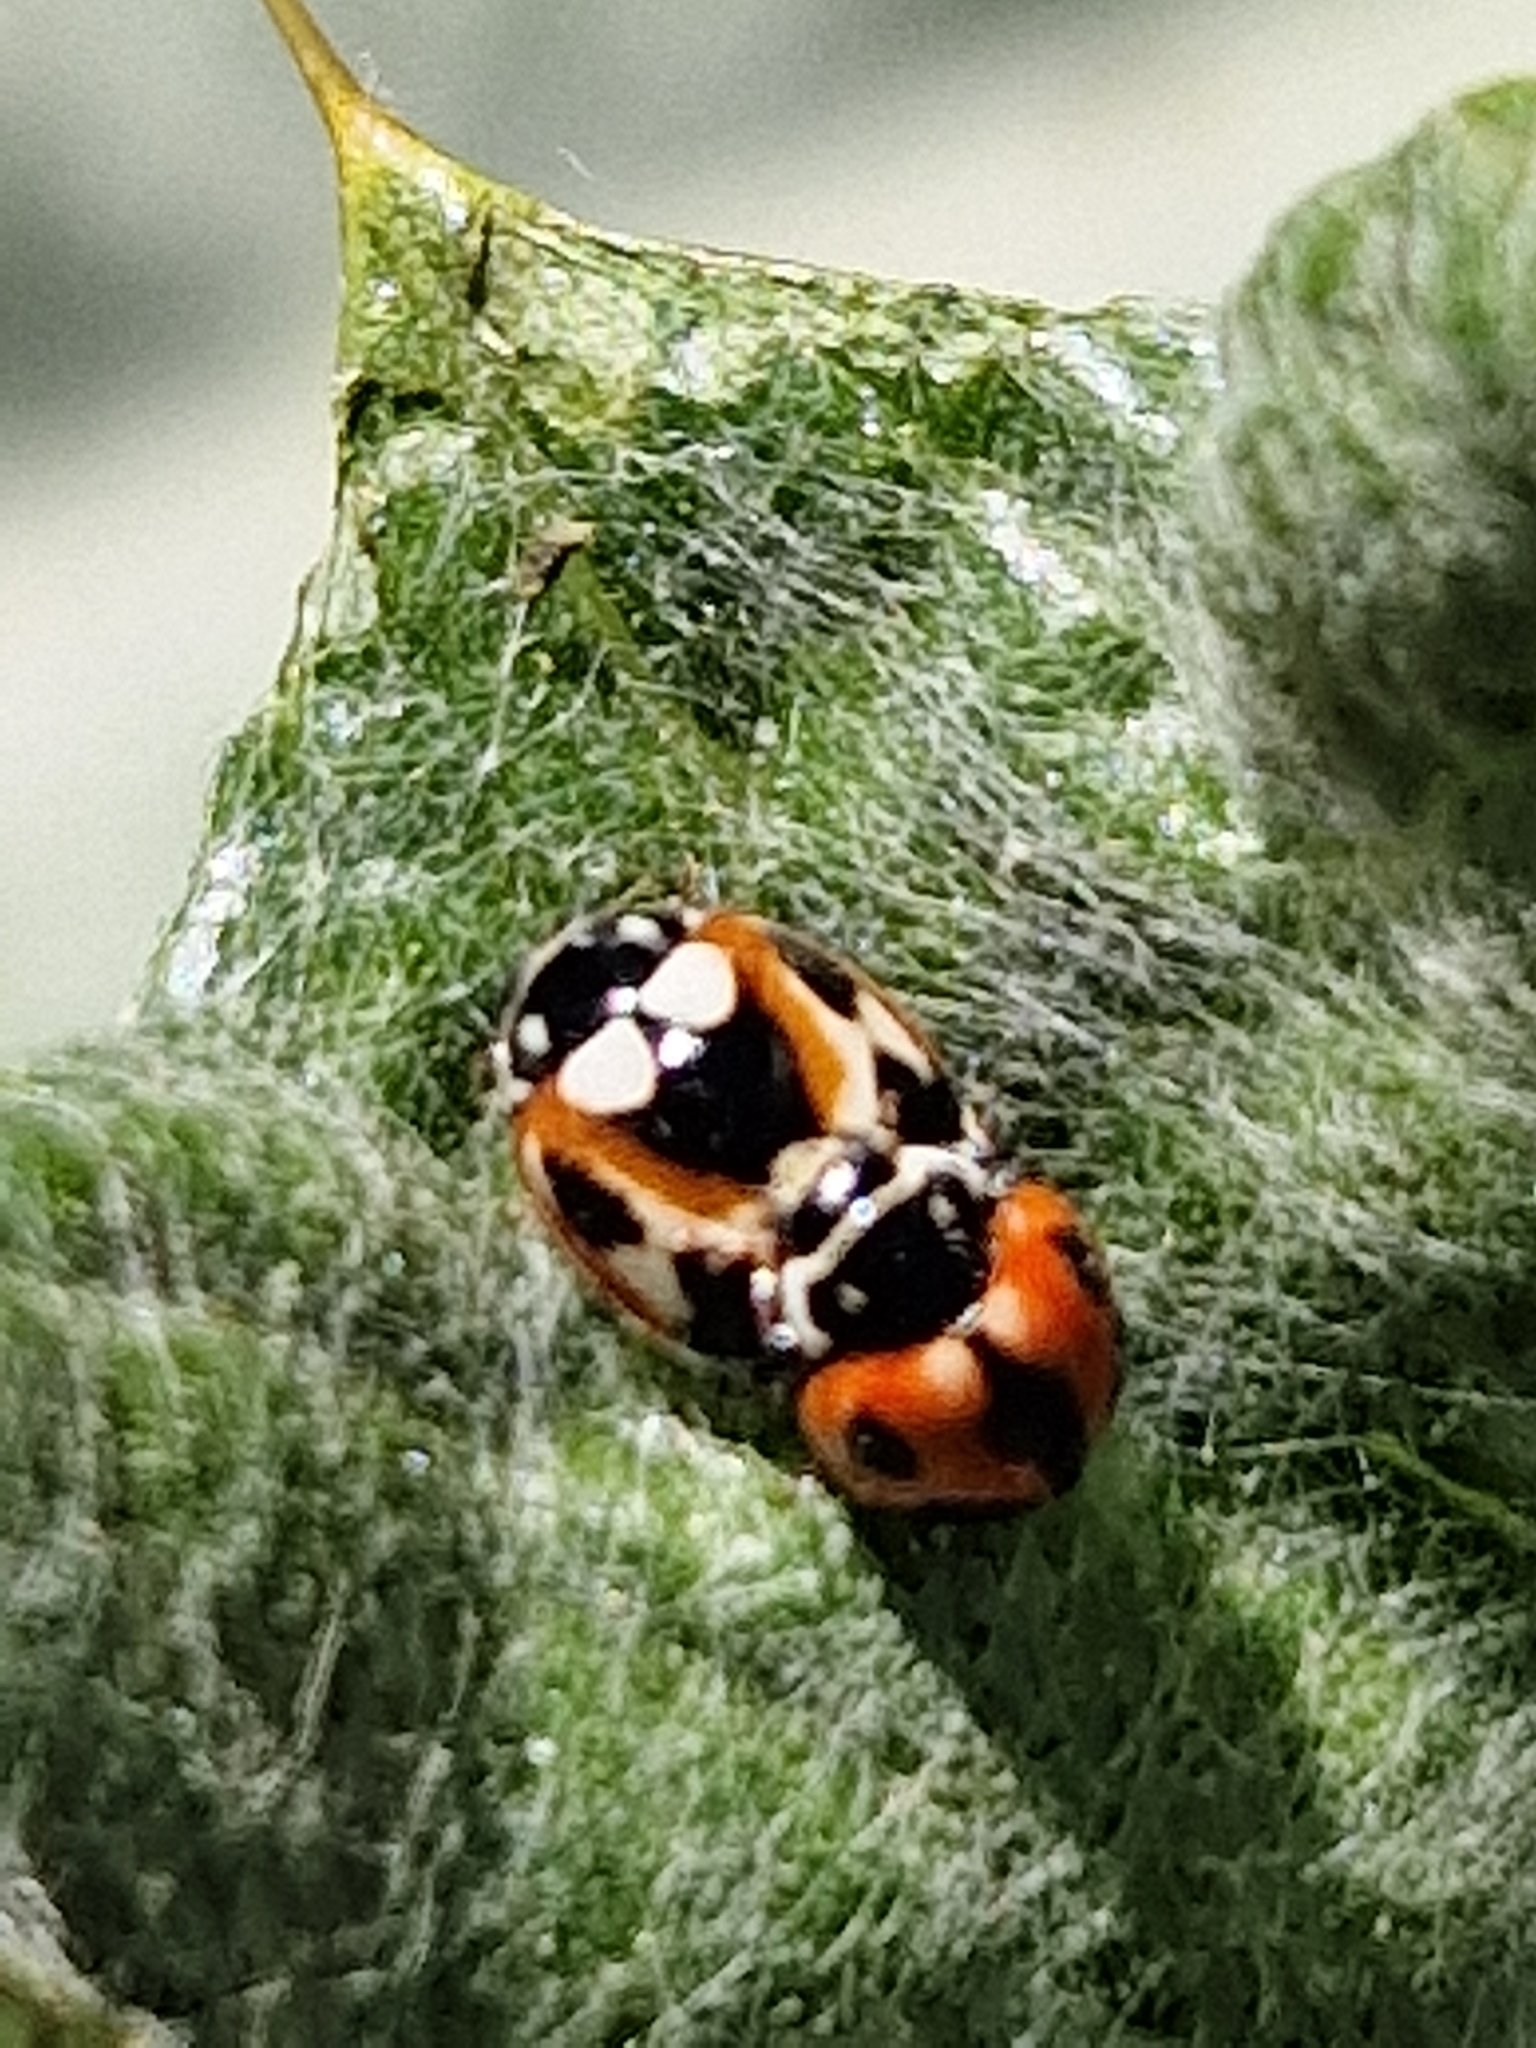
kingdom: Animalia
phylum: Arthropoda
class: Insecta
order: Coleoptera
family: Coccinellidae
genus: Cycloneda
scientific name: Cycloneda ancoralis
